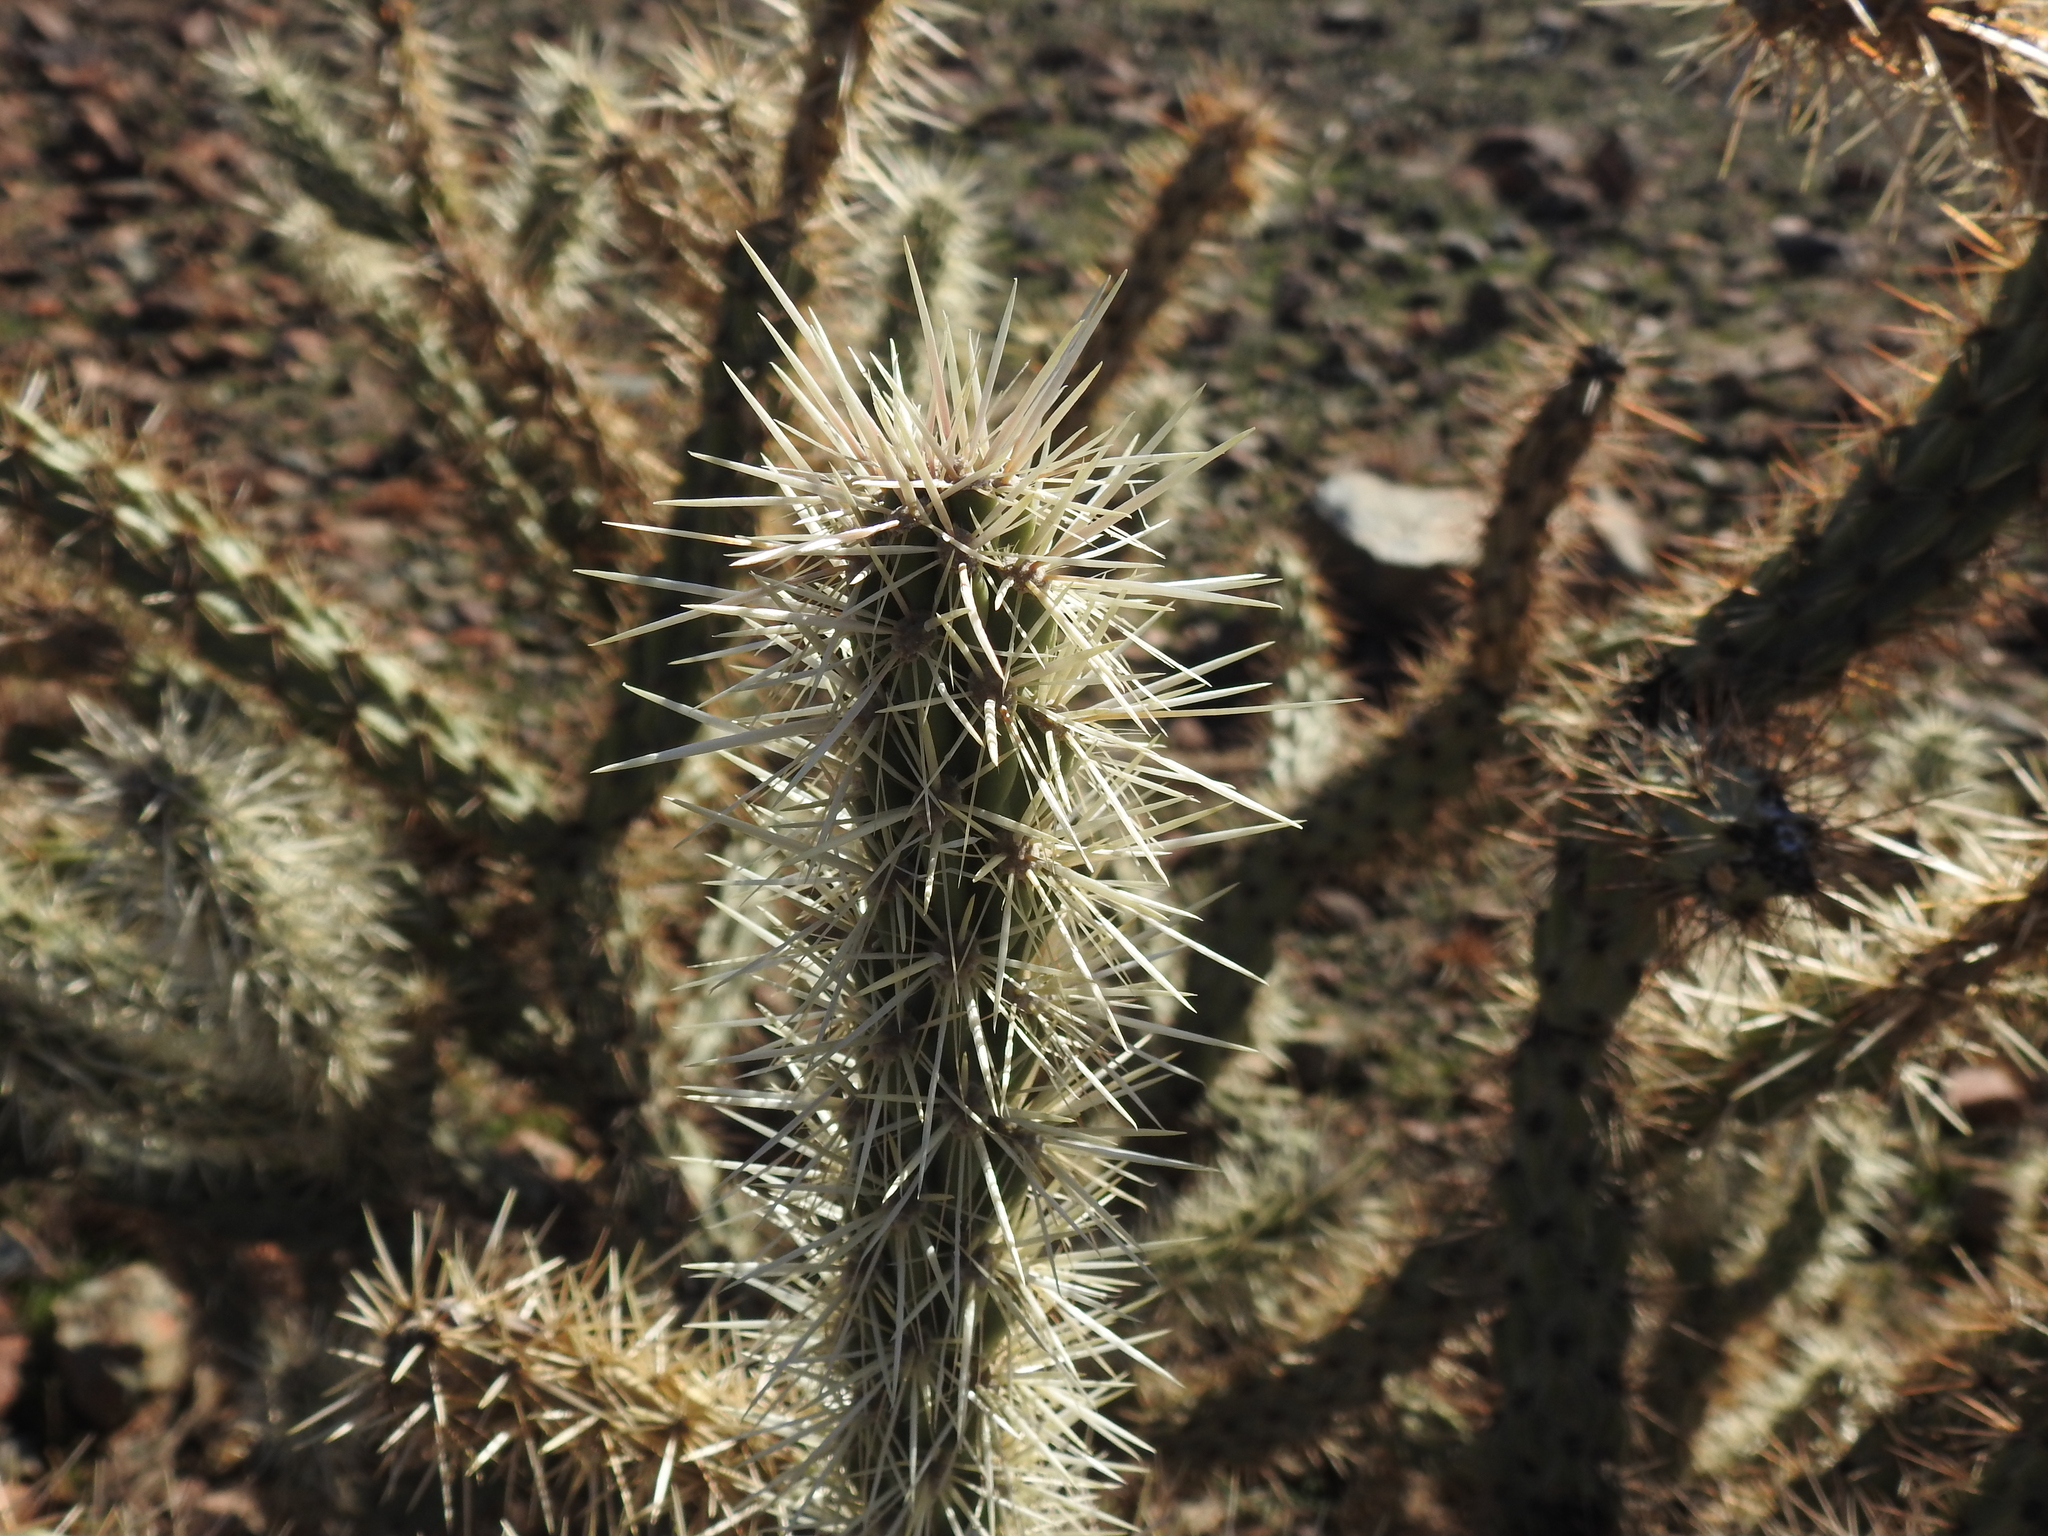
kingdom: Plantae
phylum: Tracheophyta
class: Magnoliopsida
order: Caryophyllales
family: Cactaceae
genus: Cylindropuntia
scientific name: Cylindropuntia acanthocarpa
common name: Buckhorn cholla
